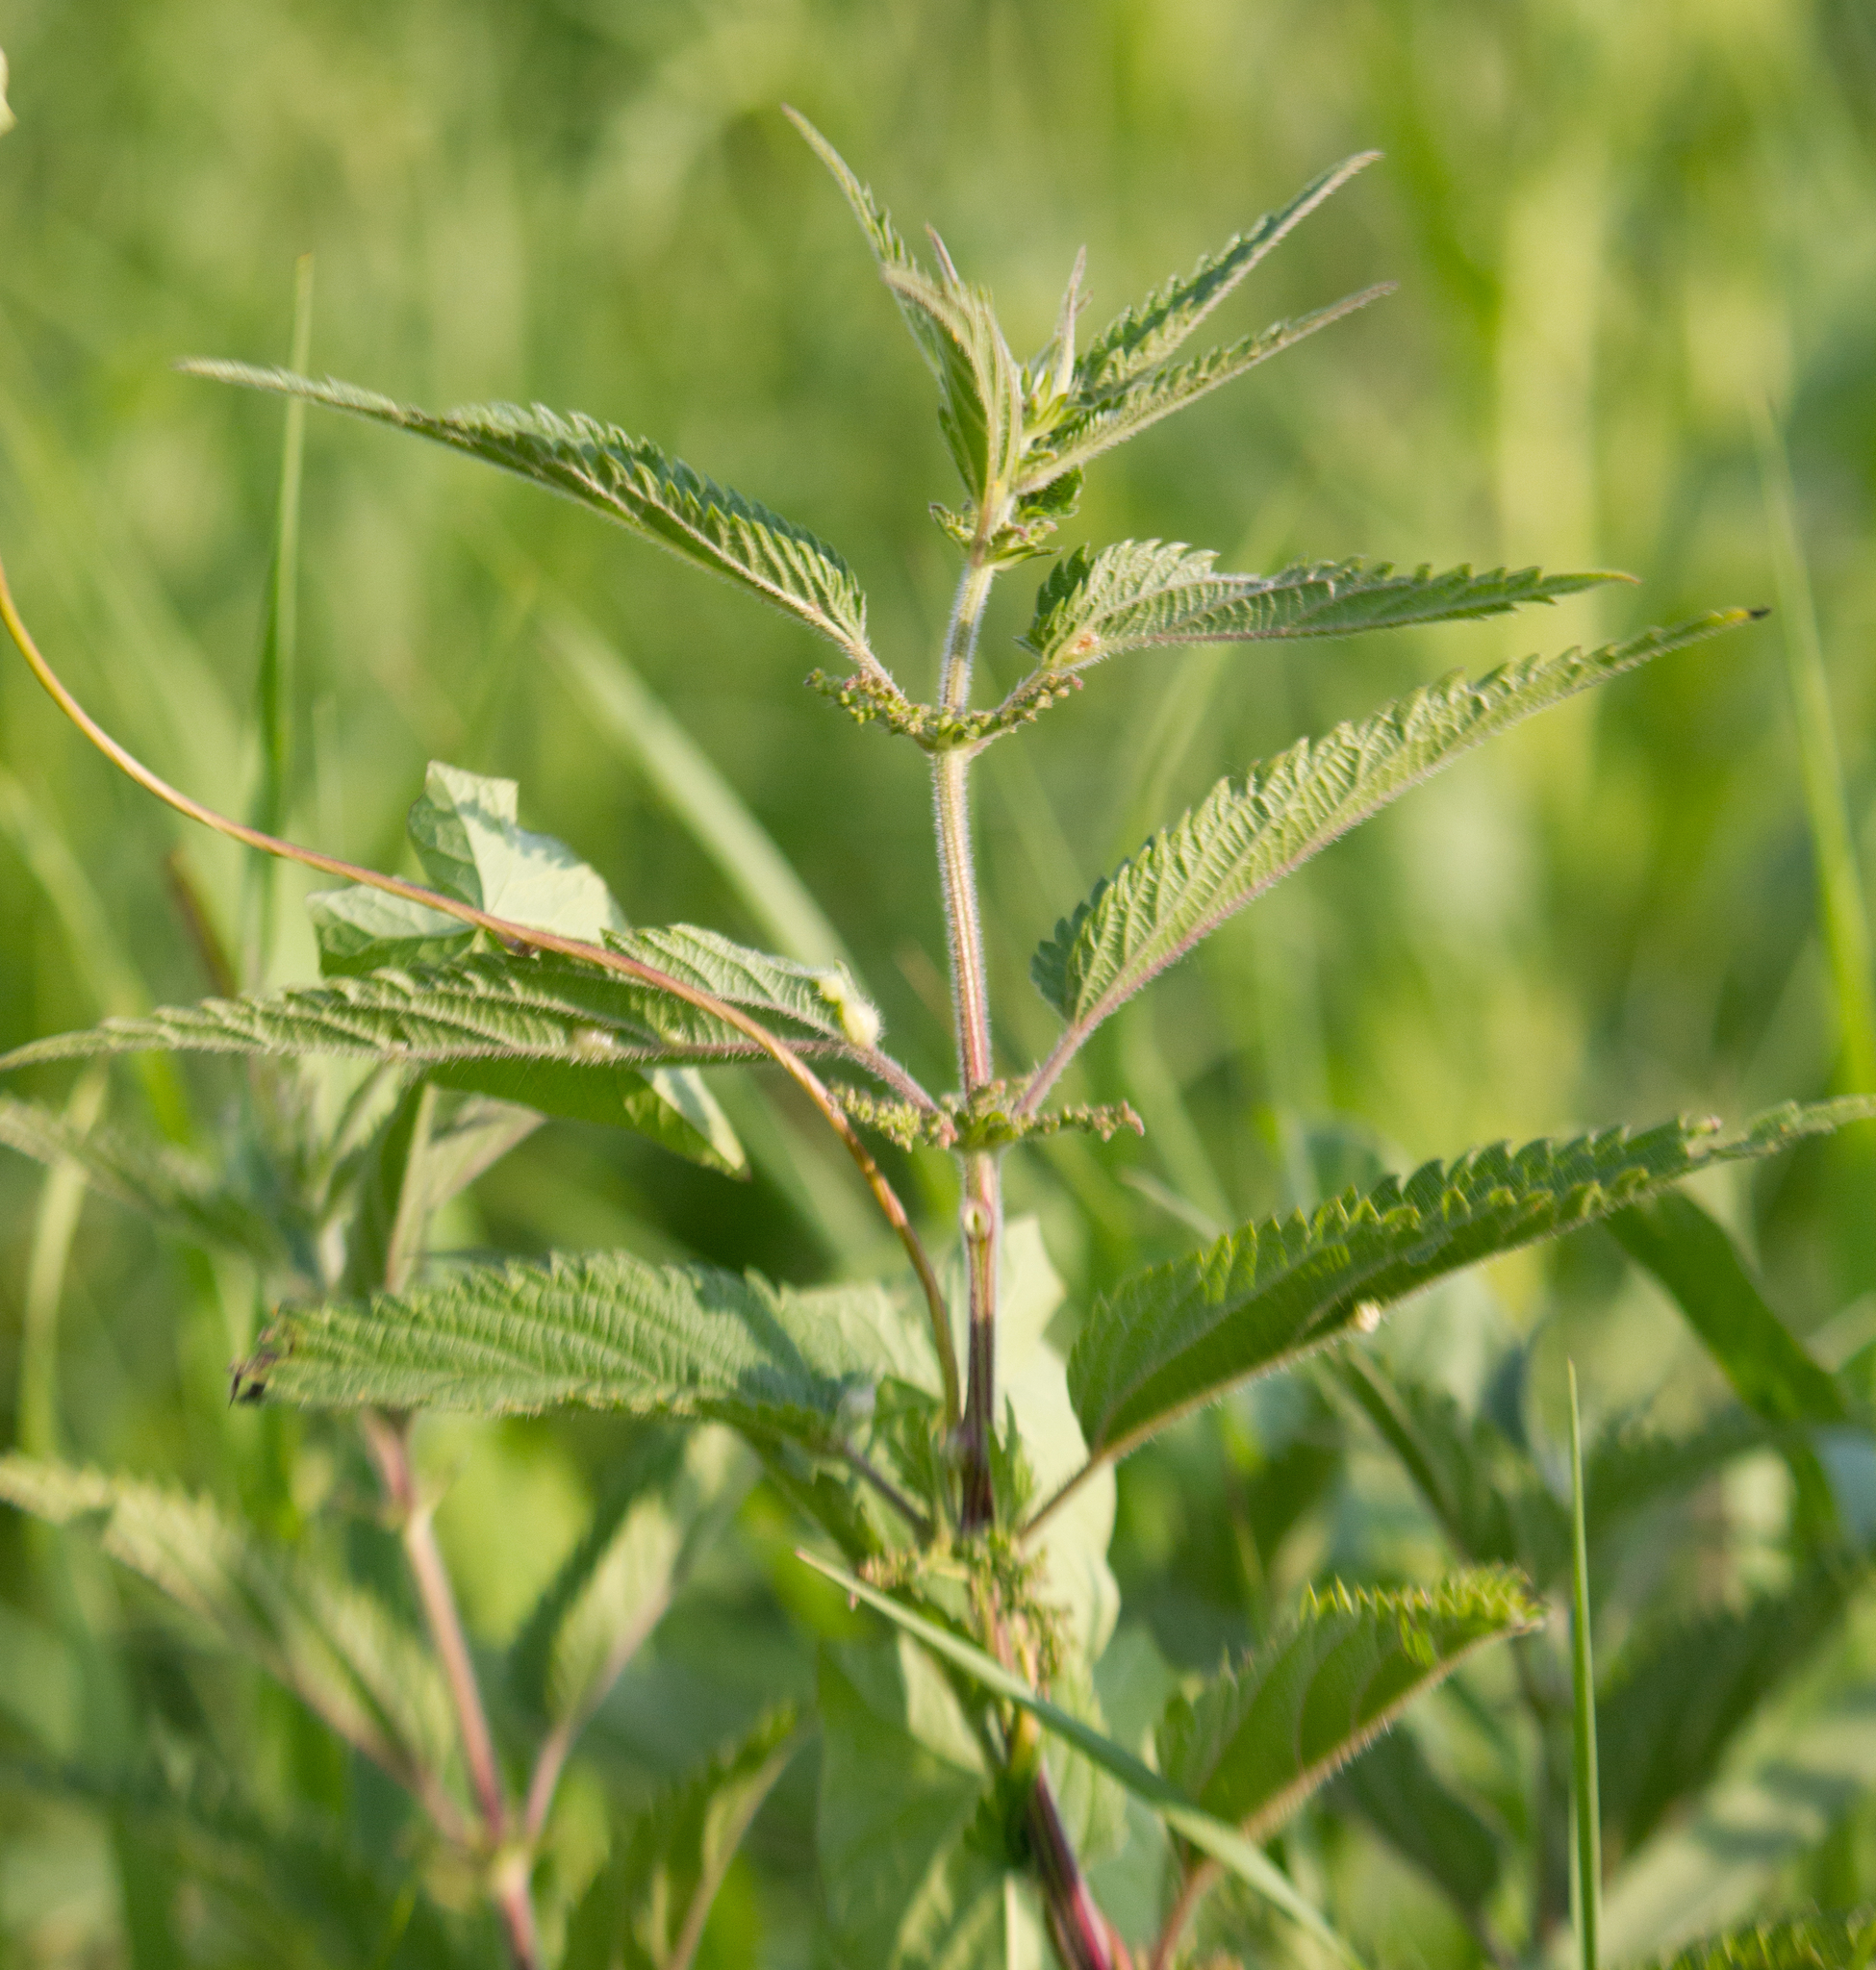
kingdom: Plantae
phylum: Tracheophyta
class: Magnoliopsida
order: Rosales
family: Urticaceae
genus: Urtica
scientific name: Urtica dioica
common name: Common nettle
